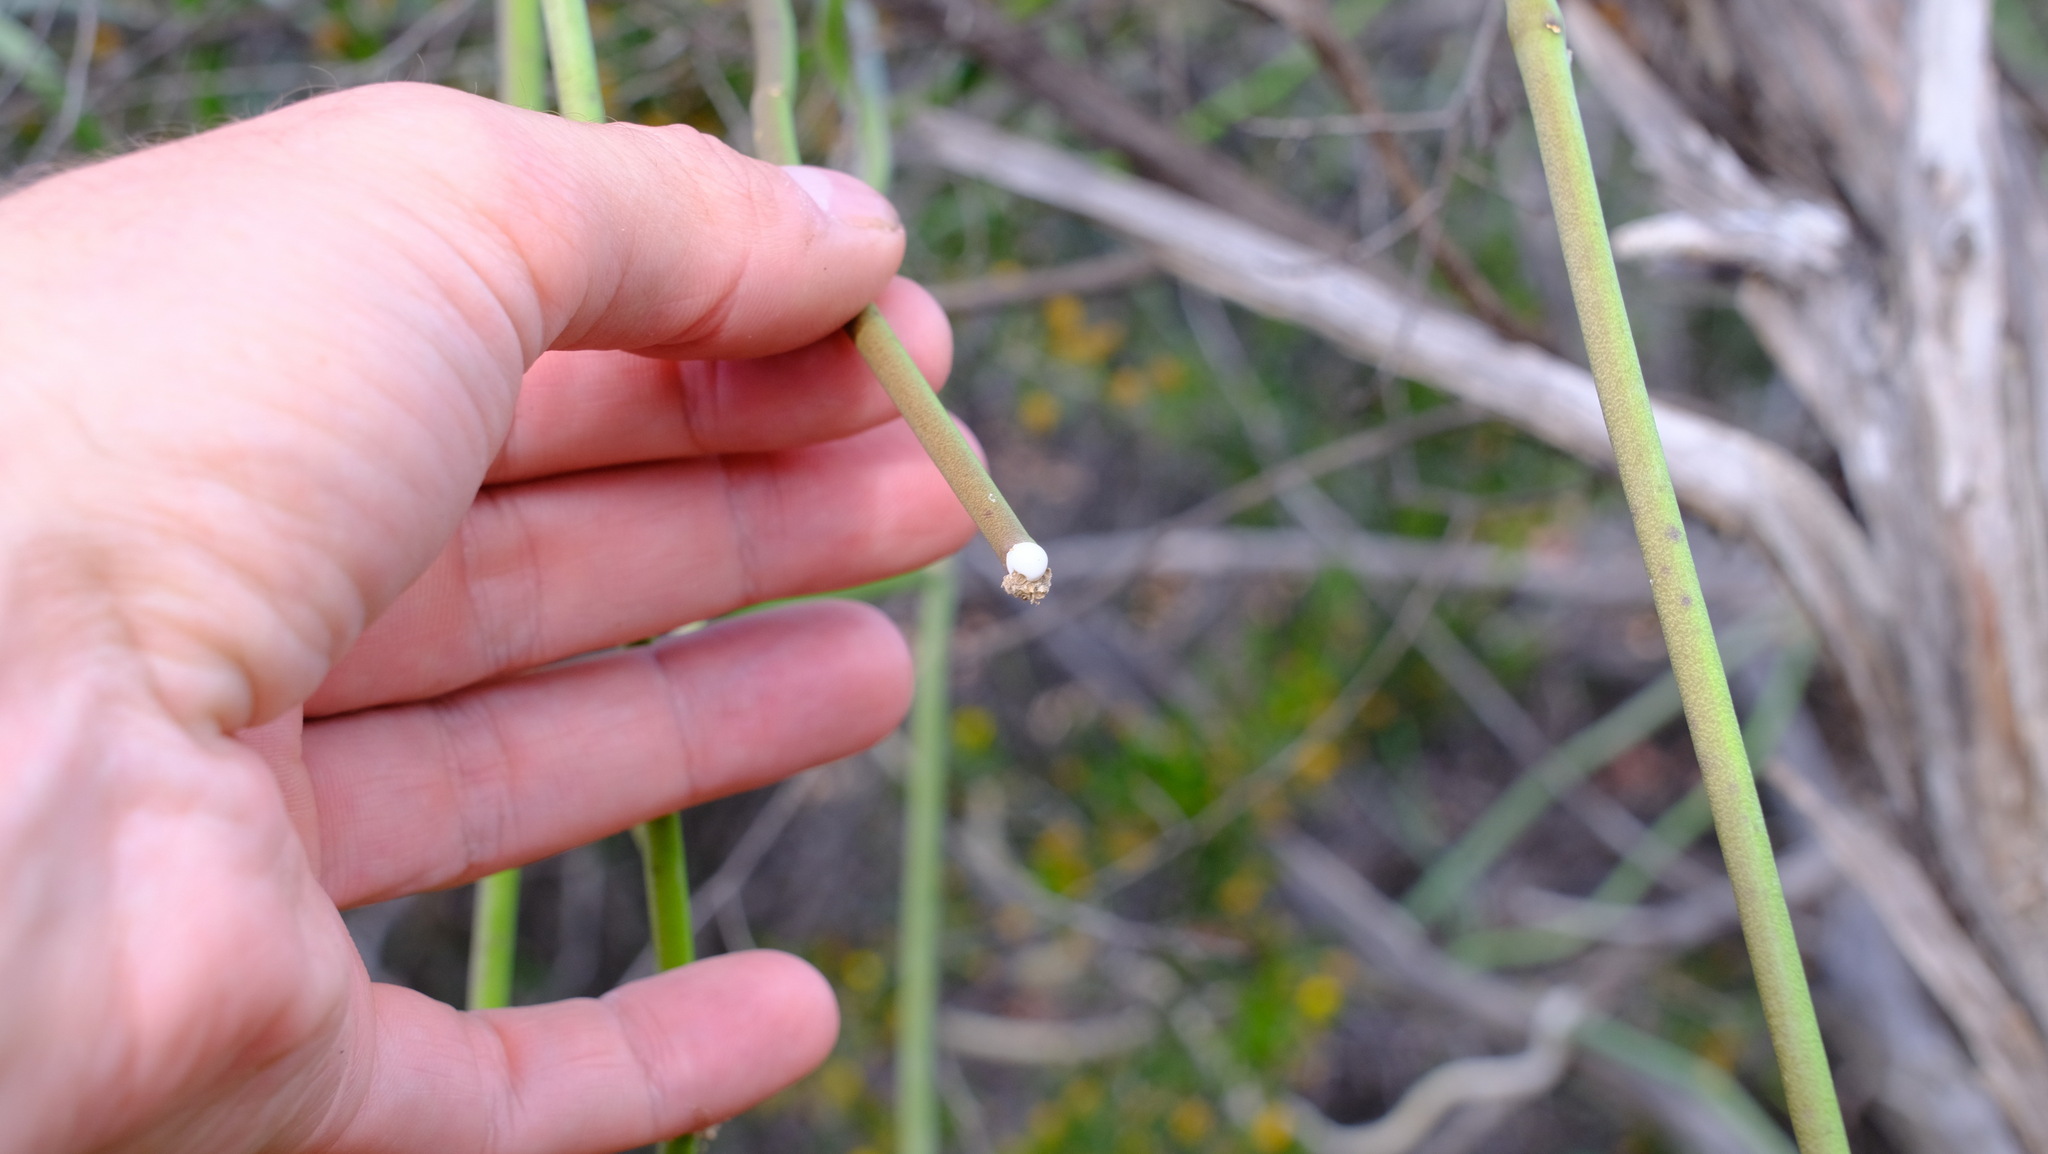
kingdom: Plantae
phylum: Tracheophyta
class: Magnoliopsida
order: Gentianales
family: Apocynaceae
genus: Cynanchum
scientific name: Cynanchum viminale
